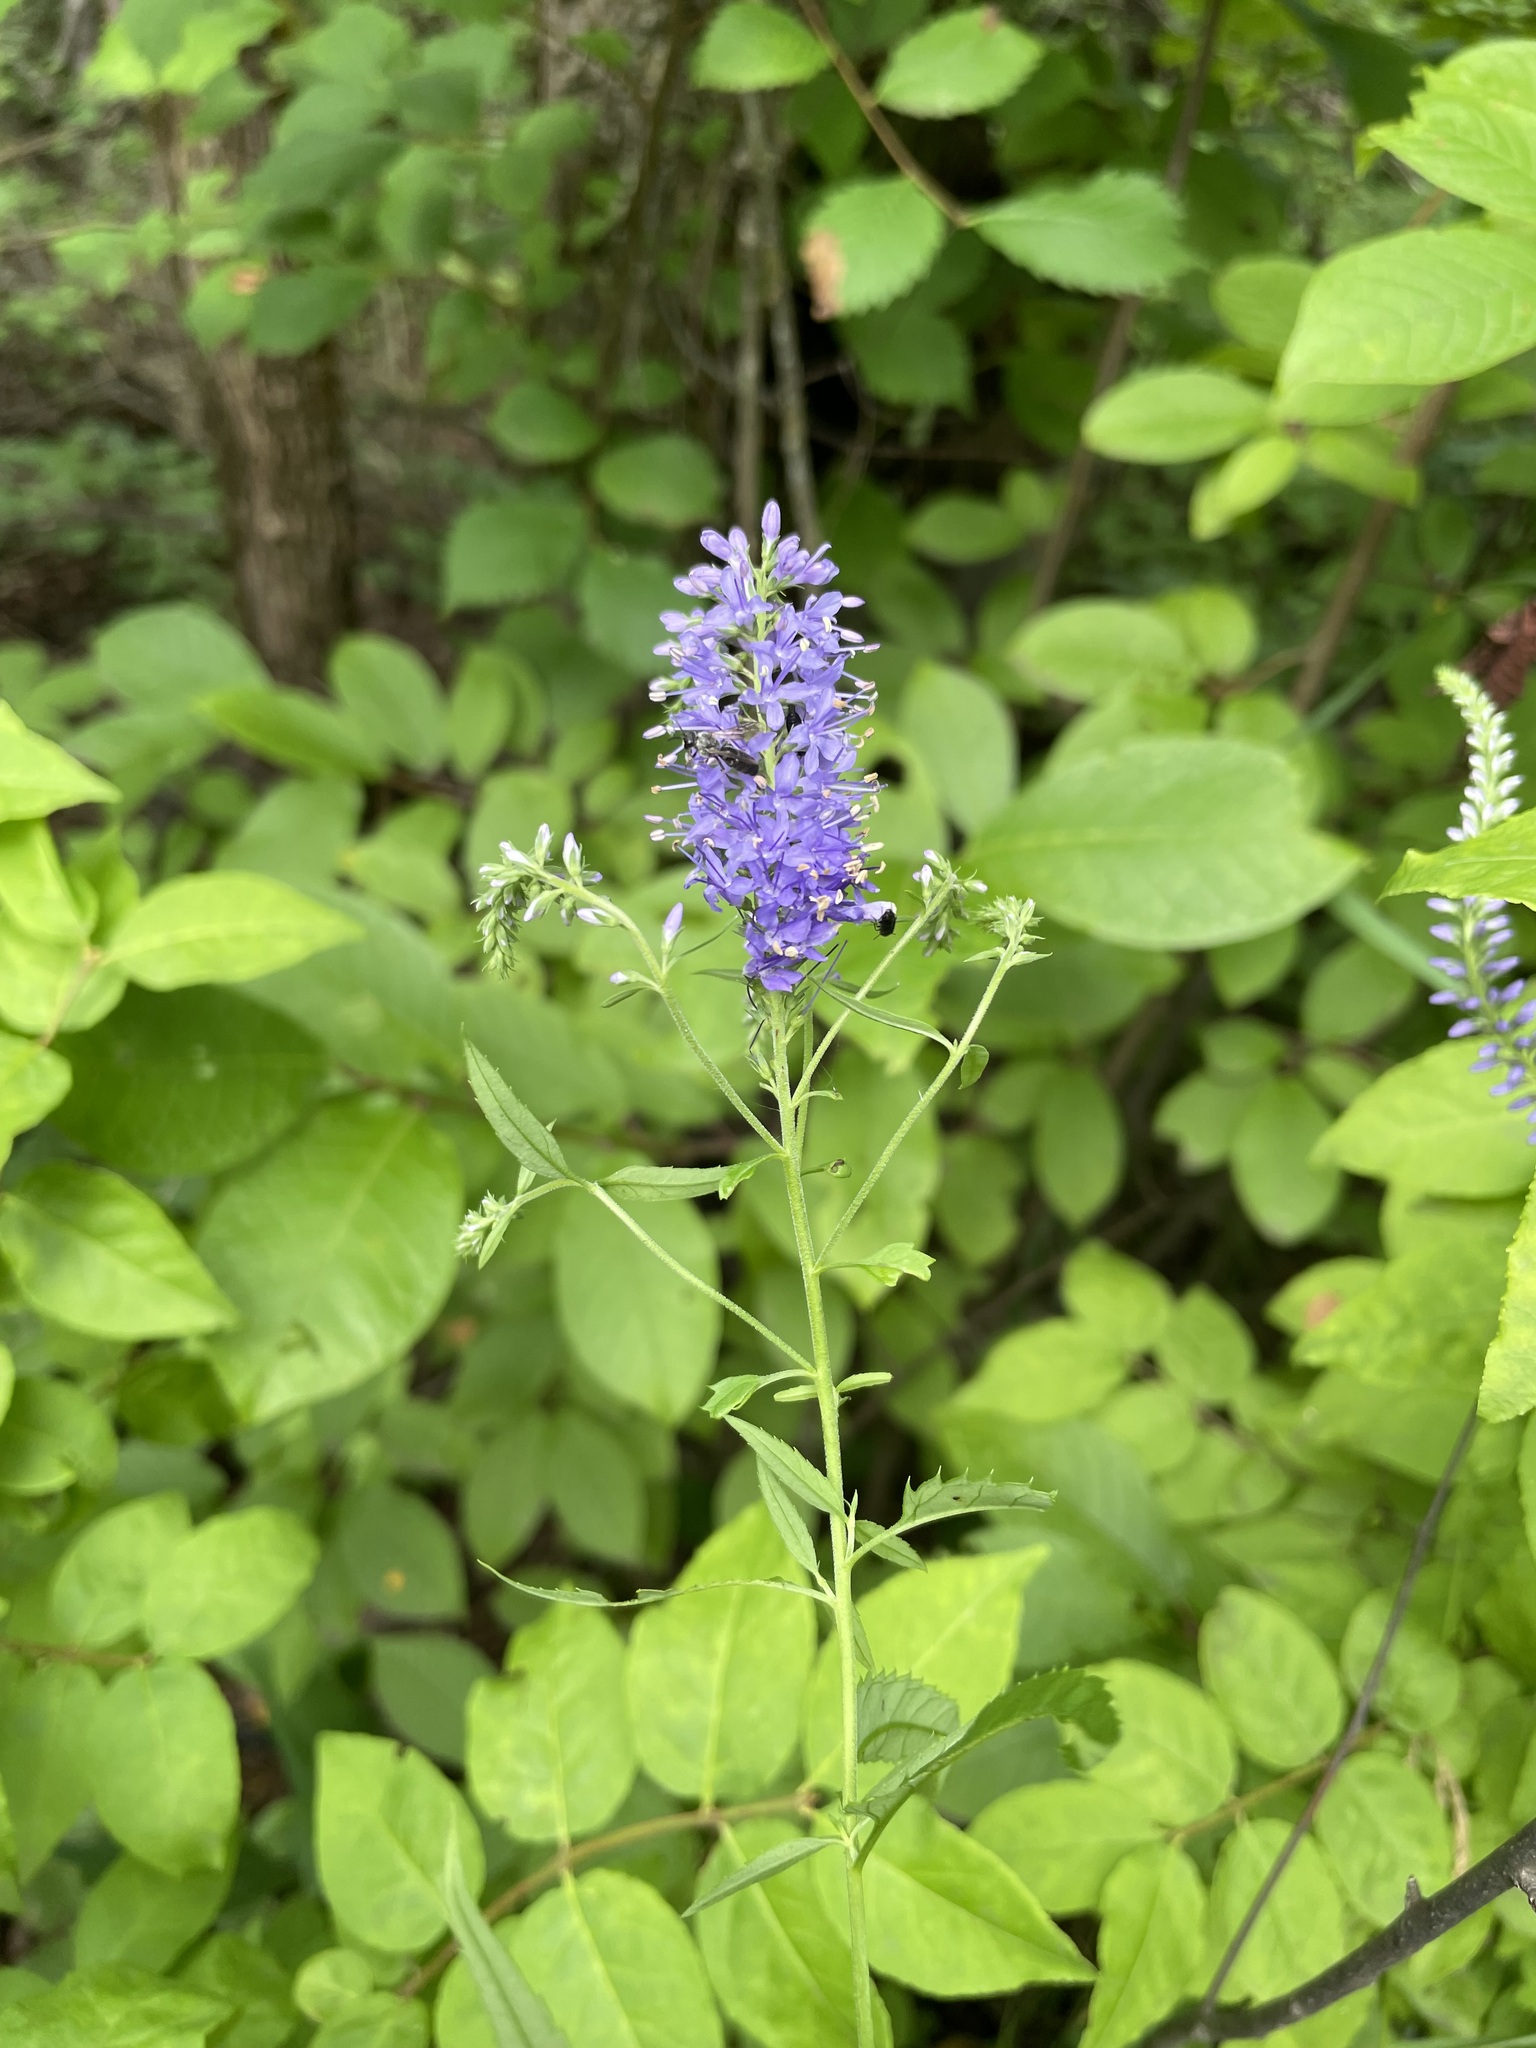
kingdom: Plantae
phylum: Tracheophyta
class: Magnoliopsida
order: Lamiales
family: Plantaginaceae
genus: Veronica
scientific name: Veronica longifolia
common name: Garden speedwell
